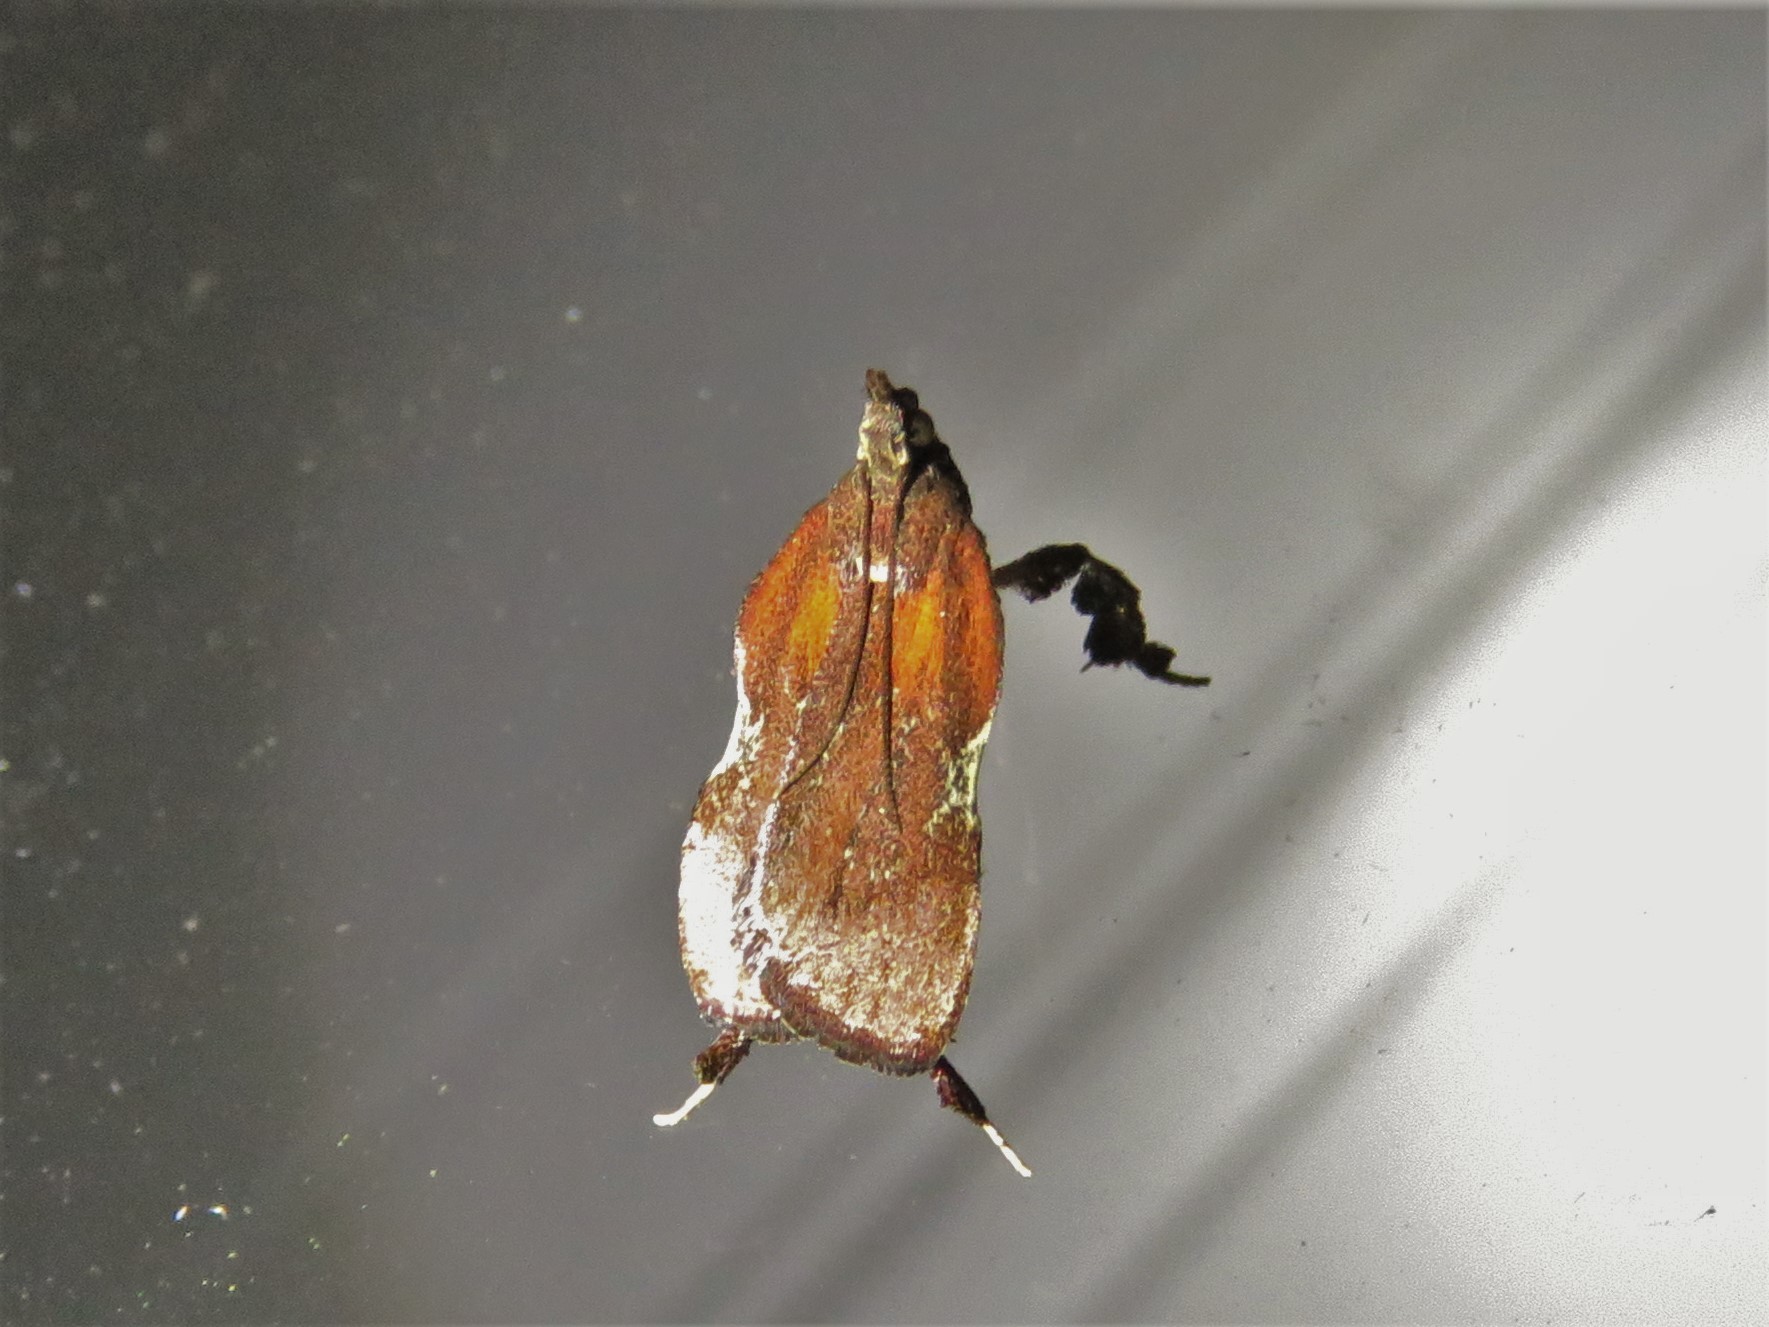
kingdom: Animalia
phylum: Arthropoda
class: Insecta
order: Lepidoptera
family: Pyralidae
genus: Galasa
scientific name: Galasa nigrinodis
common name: Boxwood leaftier moth
